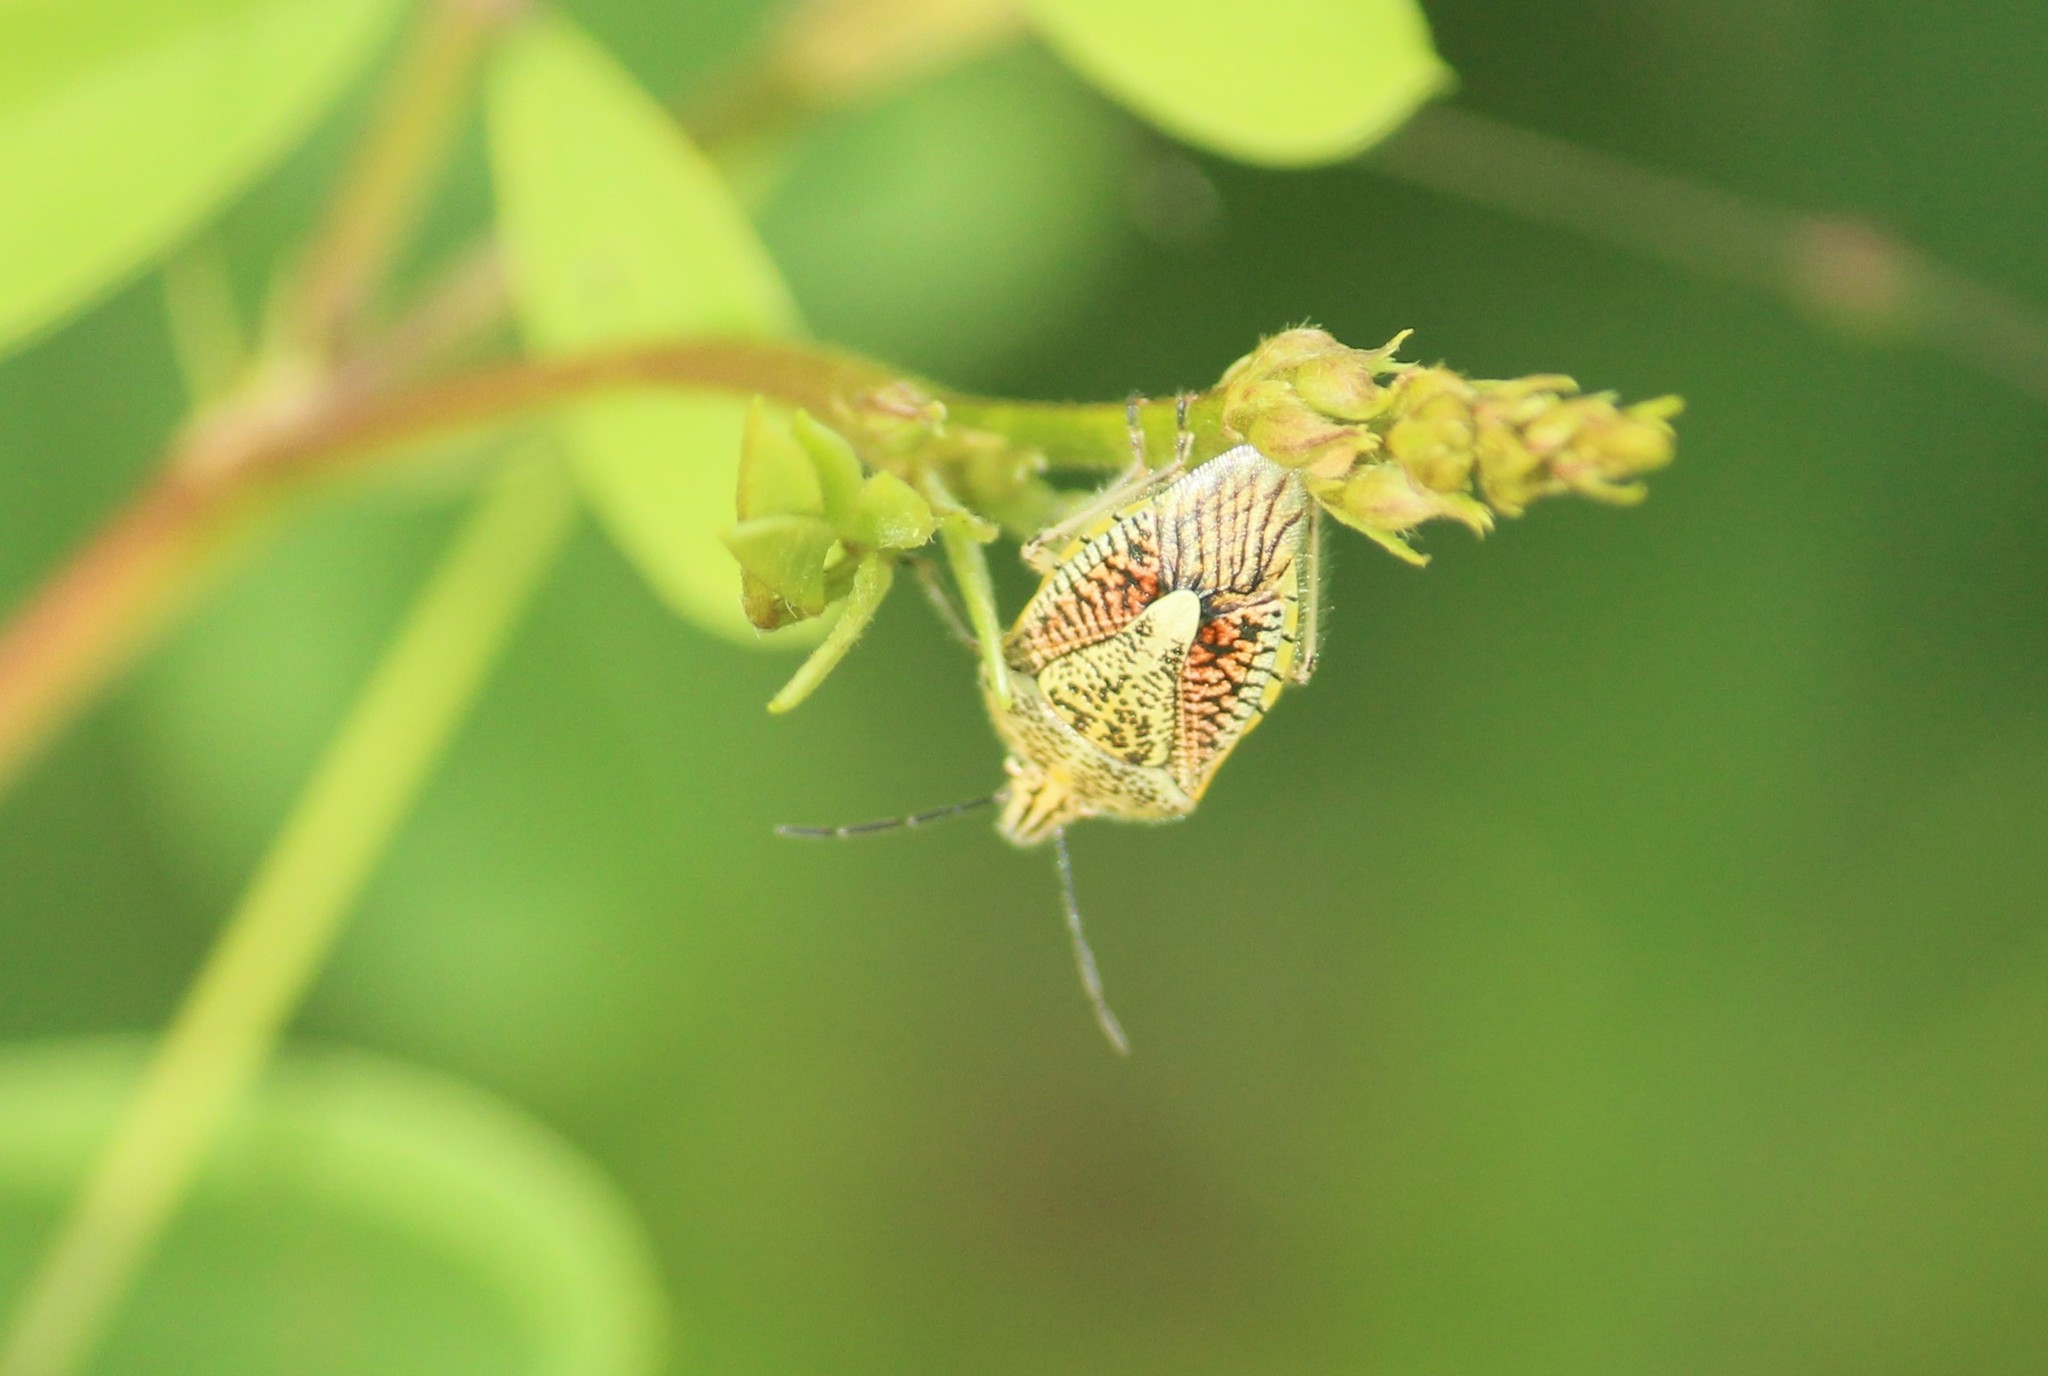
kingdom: Animalia
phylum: Arthropoda
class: Insecta
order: Hemiptera
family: Pentatomidae
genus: Agonoscelis
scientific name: Agonoscelis nubilis
